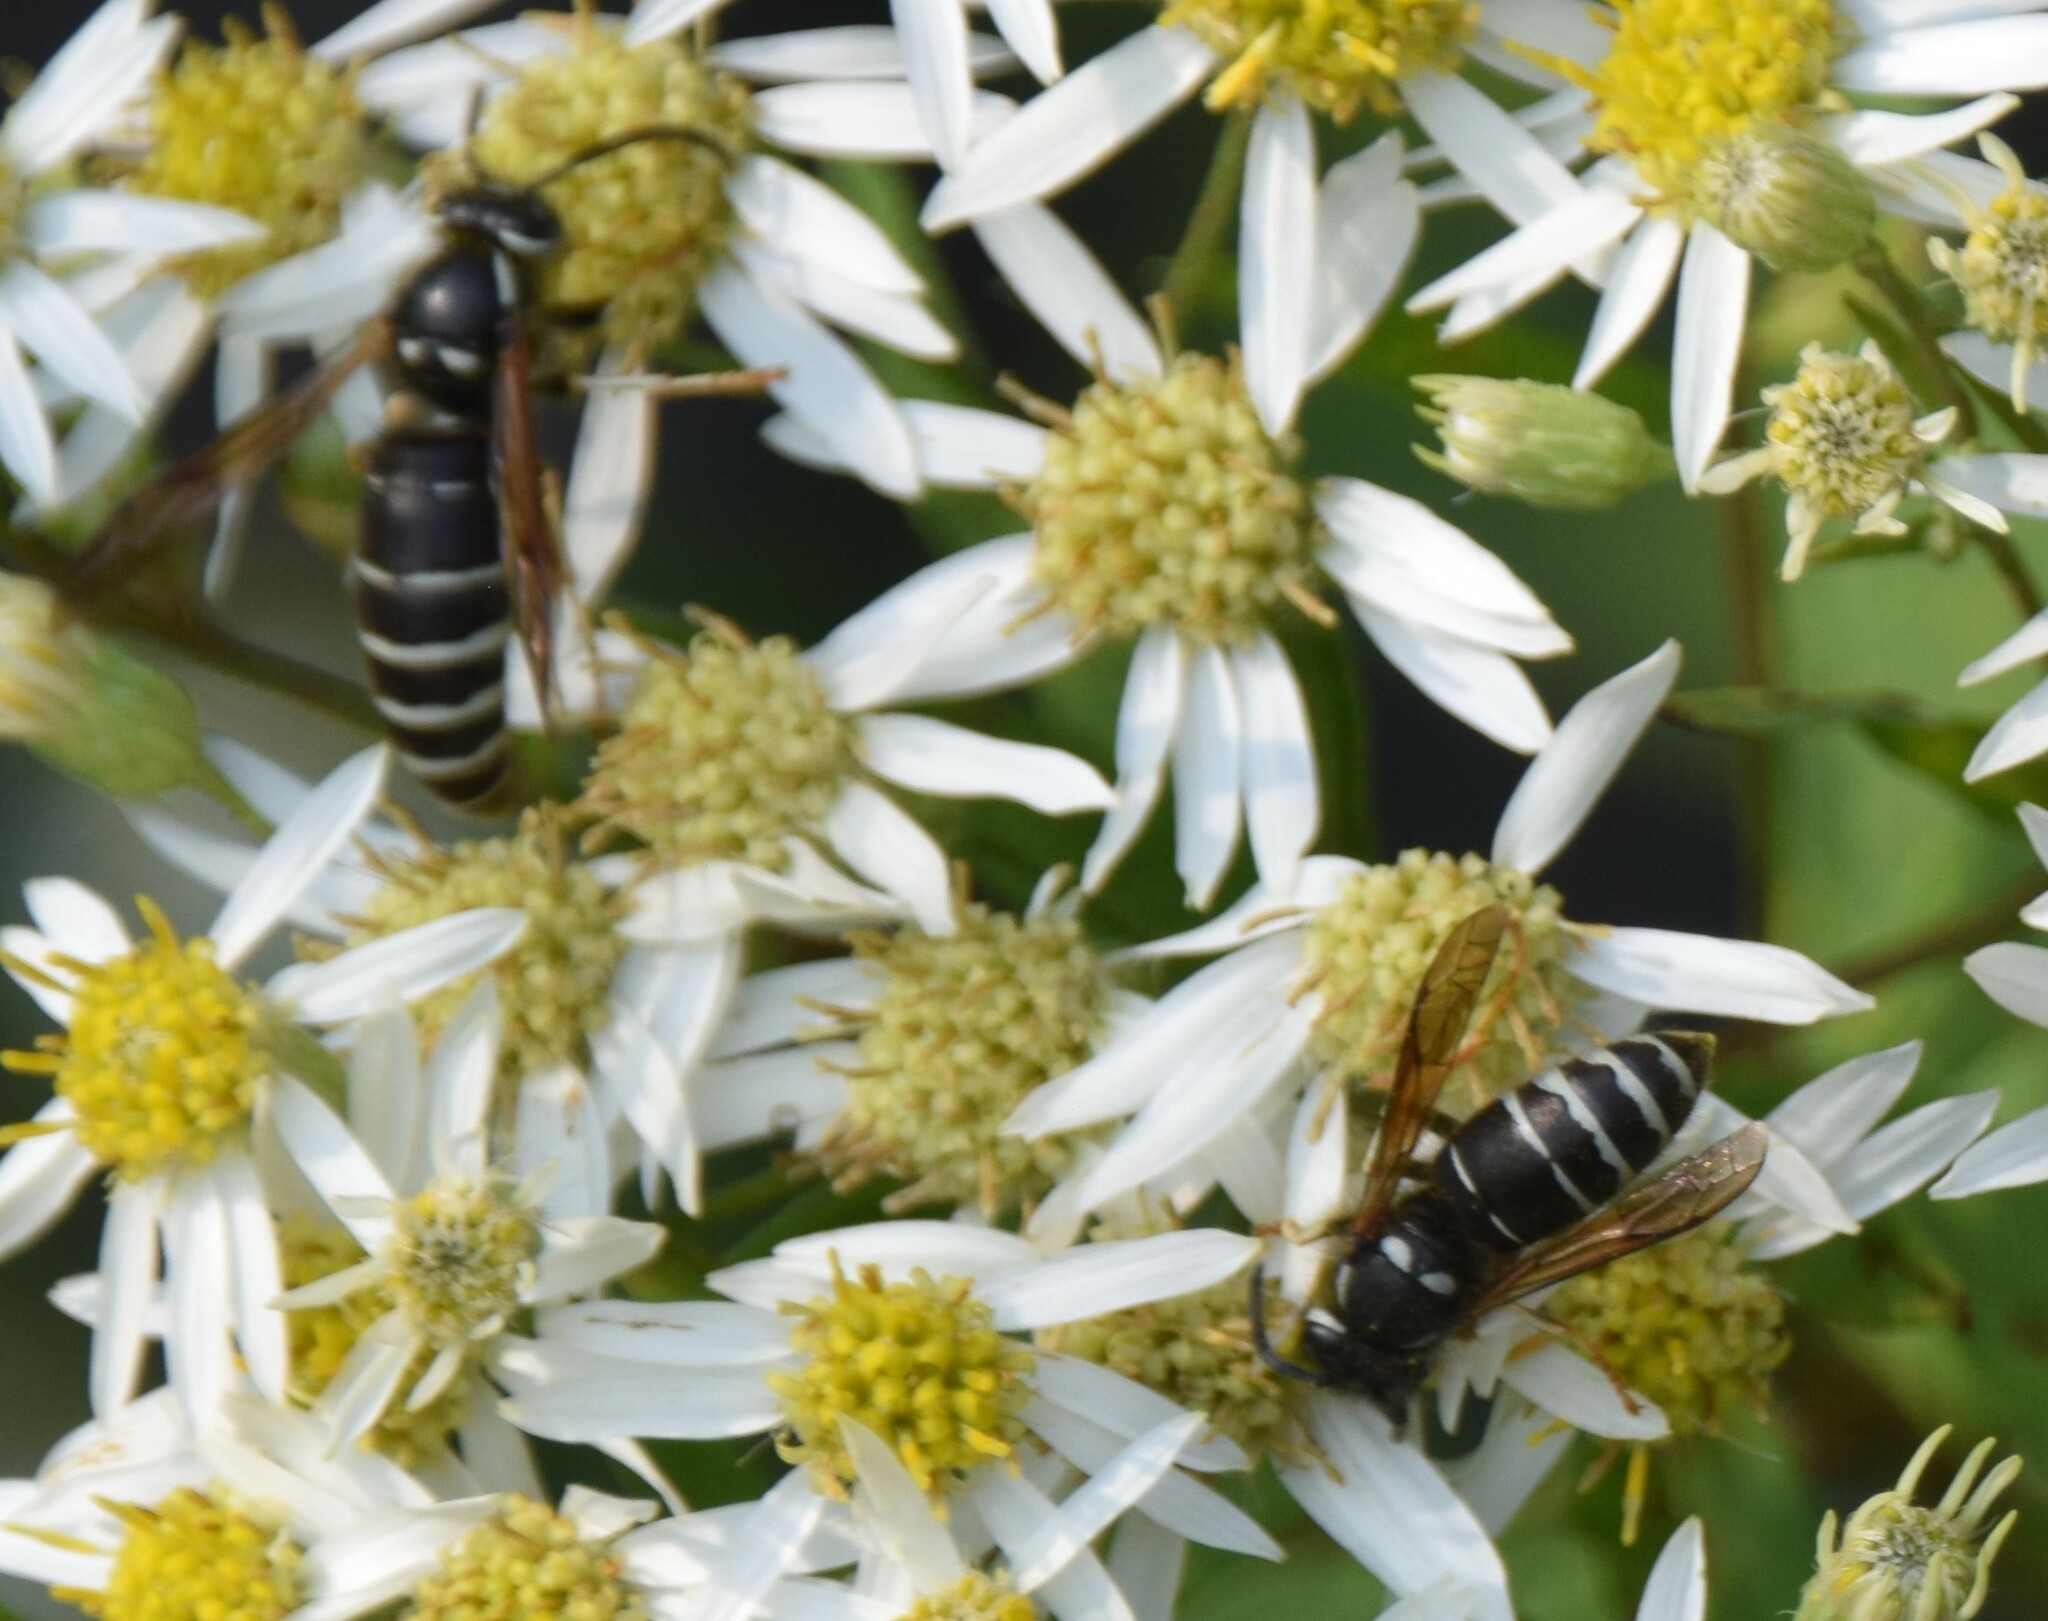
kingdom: Animalia
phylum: Arthropoda
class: Insecta
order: Hymenoptera
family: Vespidae
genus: Dolichovespula
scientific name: Dolichovespula maculata
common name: Bald-faced hornet
